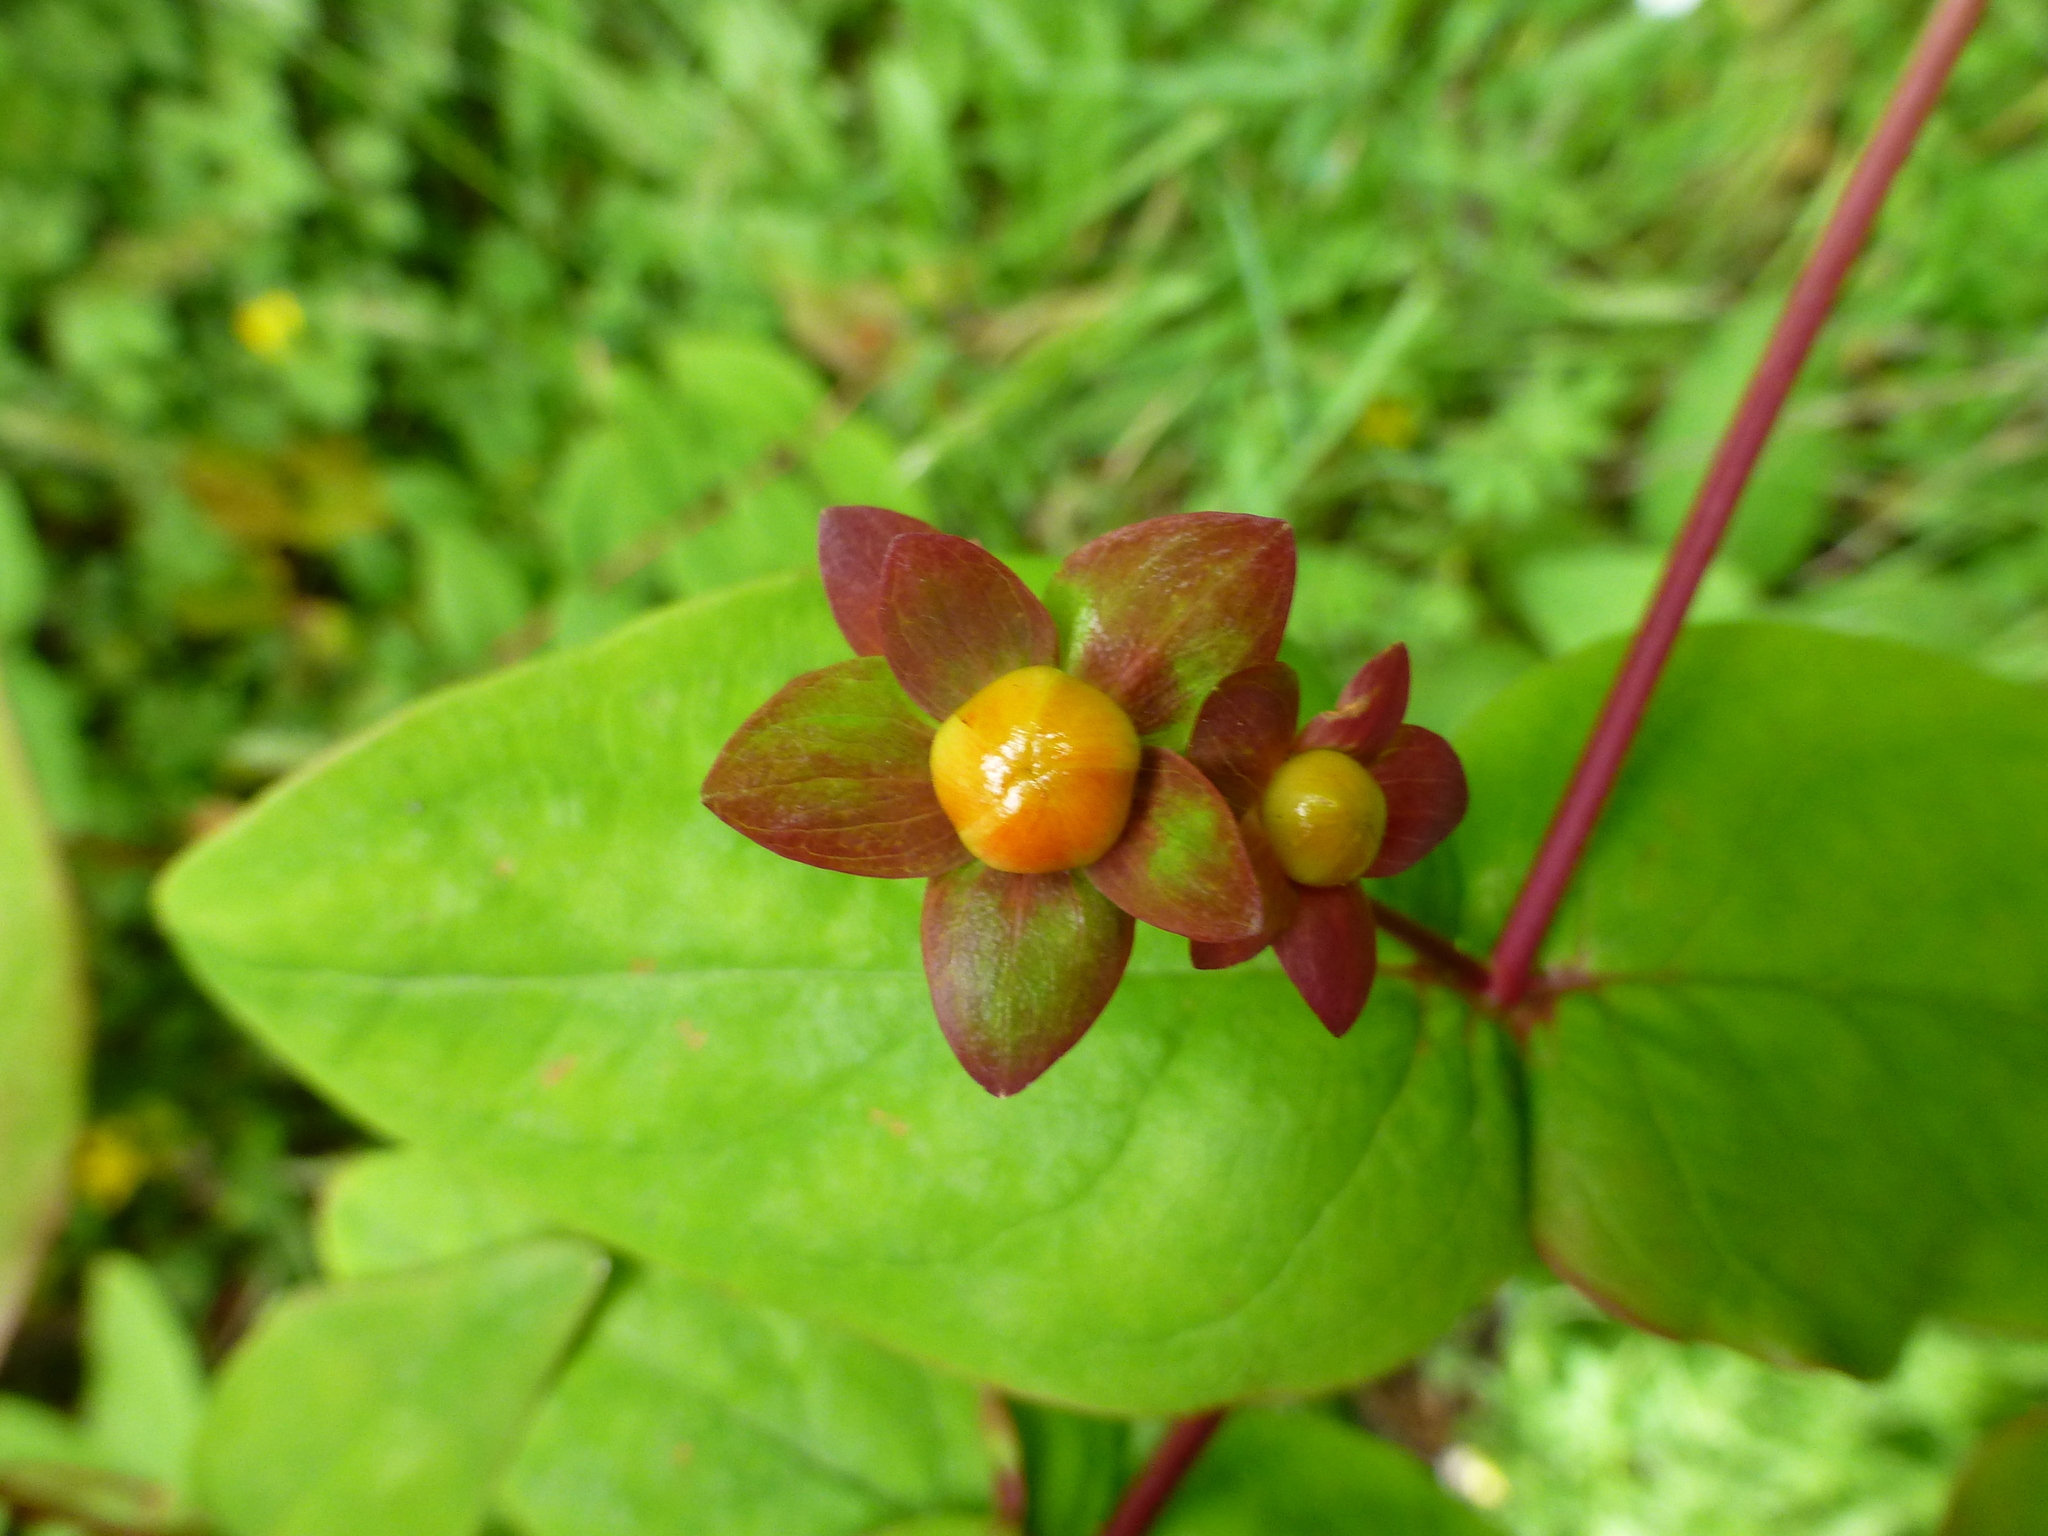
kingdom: Plantae
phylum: Tracheophyta
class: Magnoliopsida
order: Malpighiales
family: Hypericaceae
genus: Hypericum
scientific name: Hypericum androsaemum
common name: Sweet-amber
